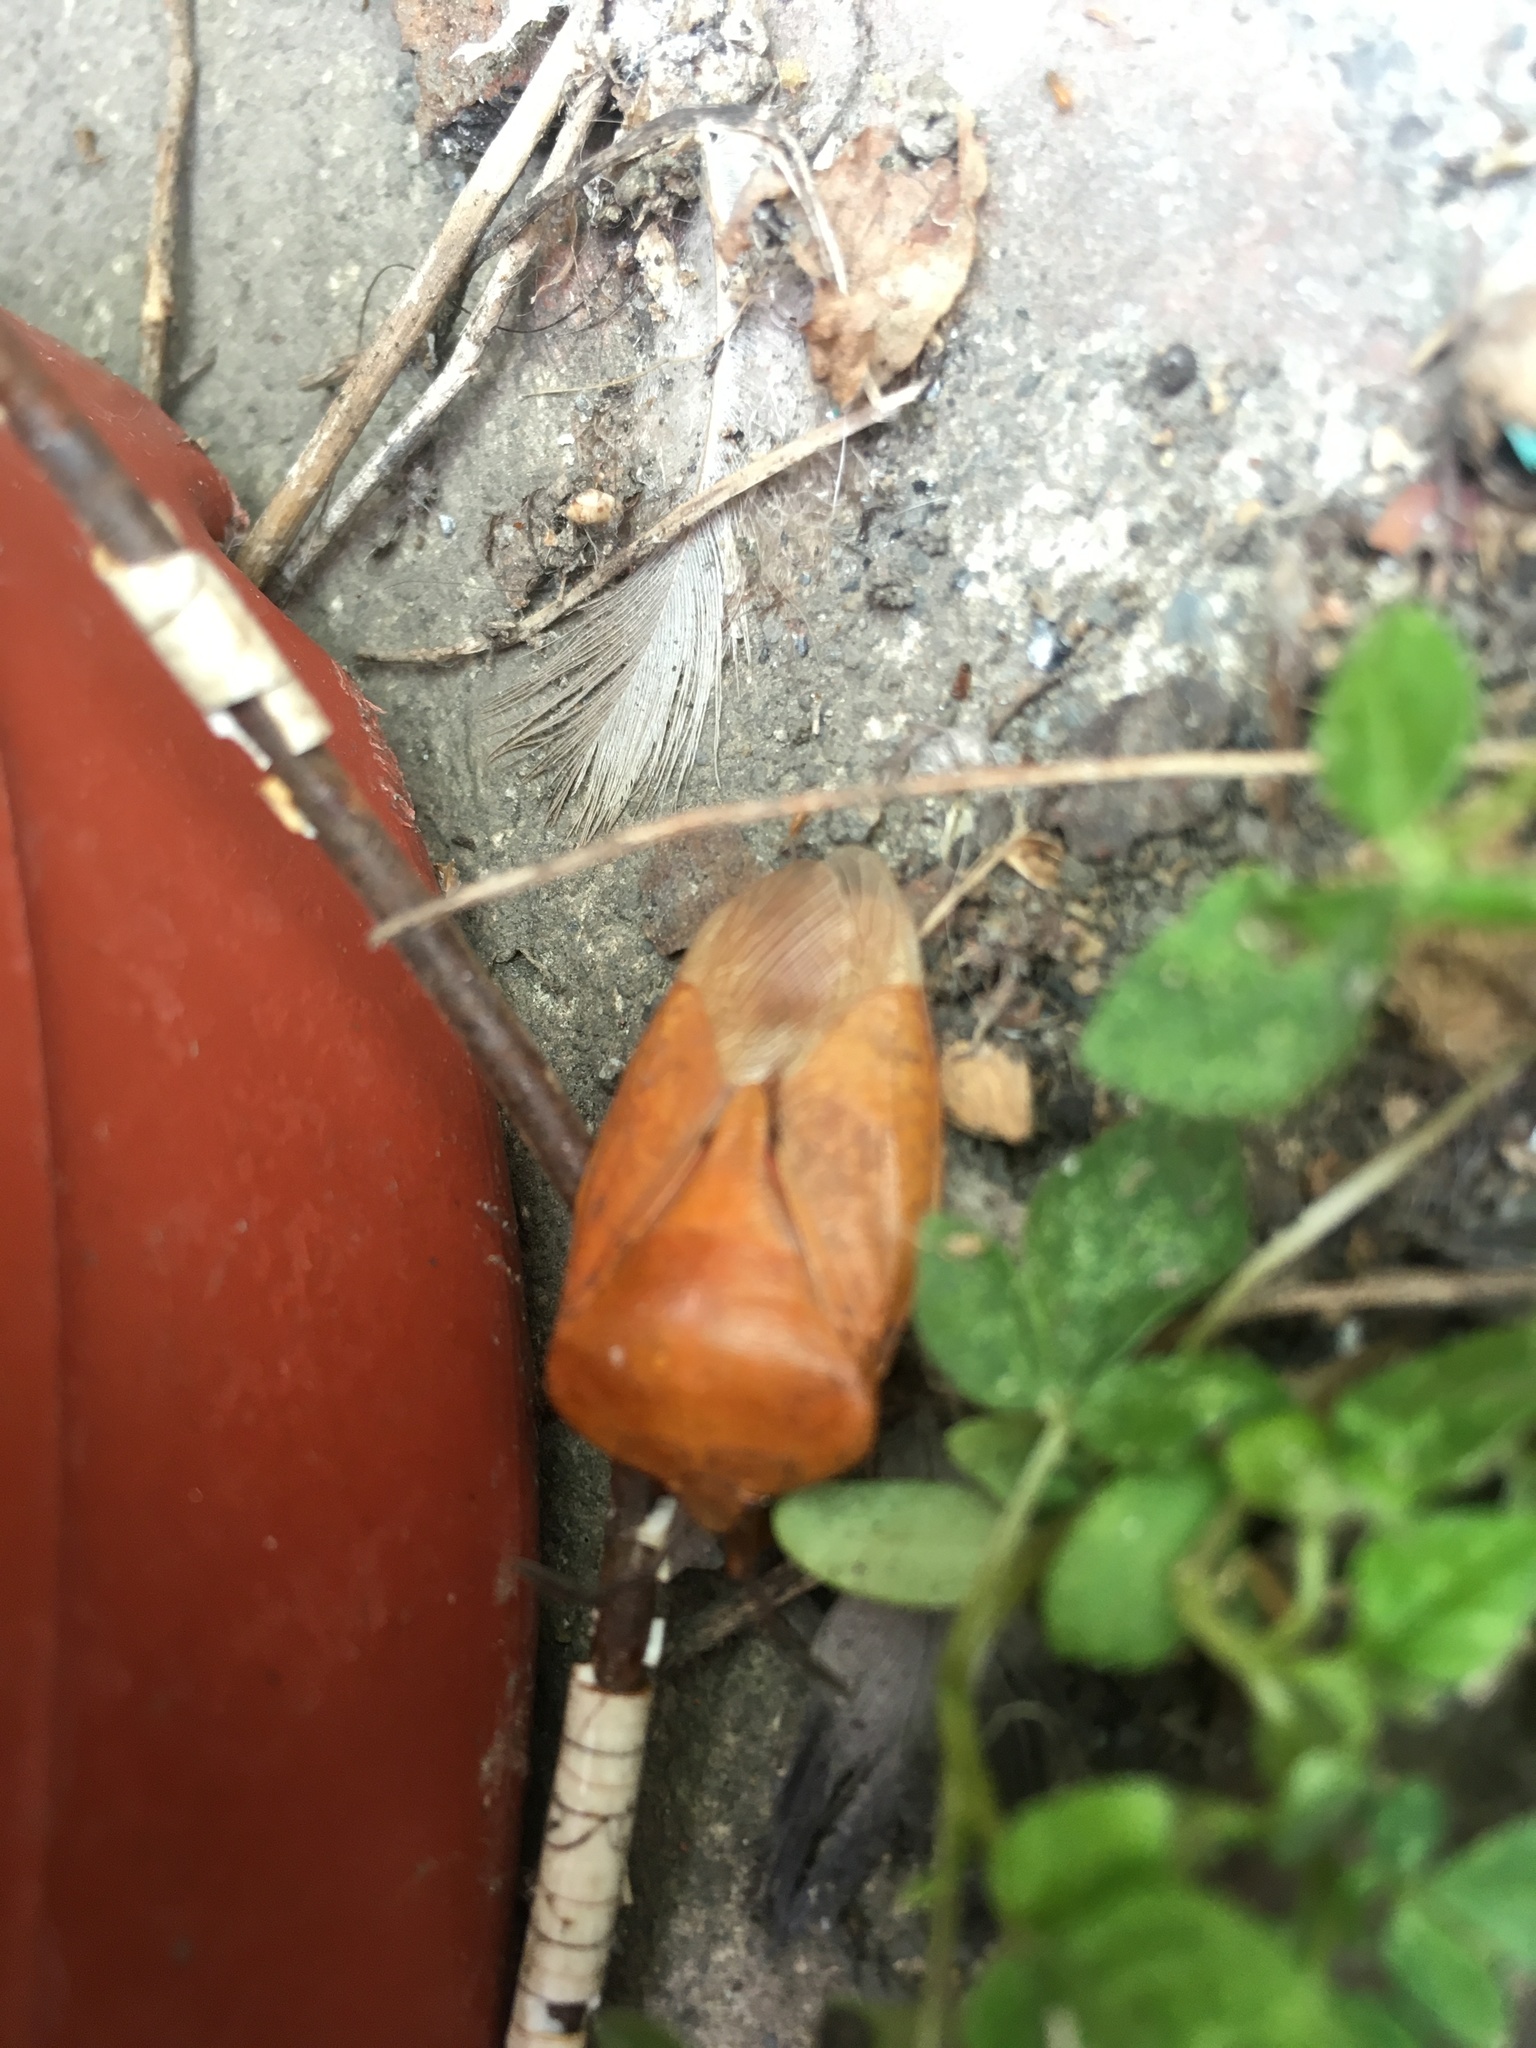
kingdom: Animalia
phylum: Arthropoda
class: Insecta
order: Hemiptera
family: Tessaratomidae
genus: Tessaratoma
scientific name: Tessaratoma papillosa
